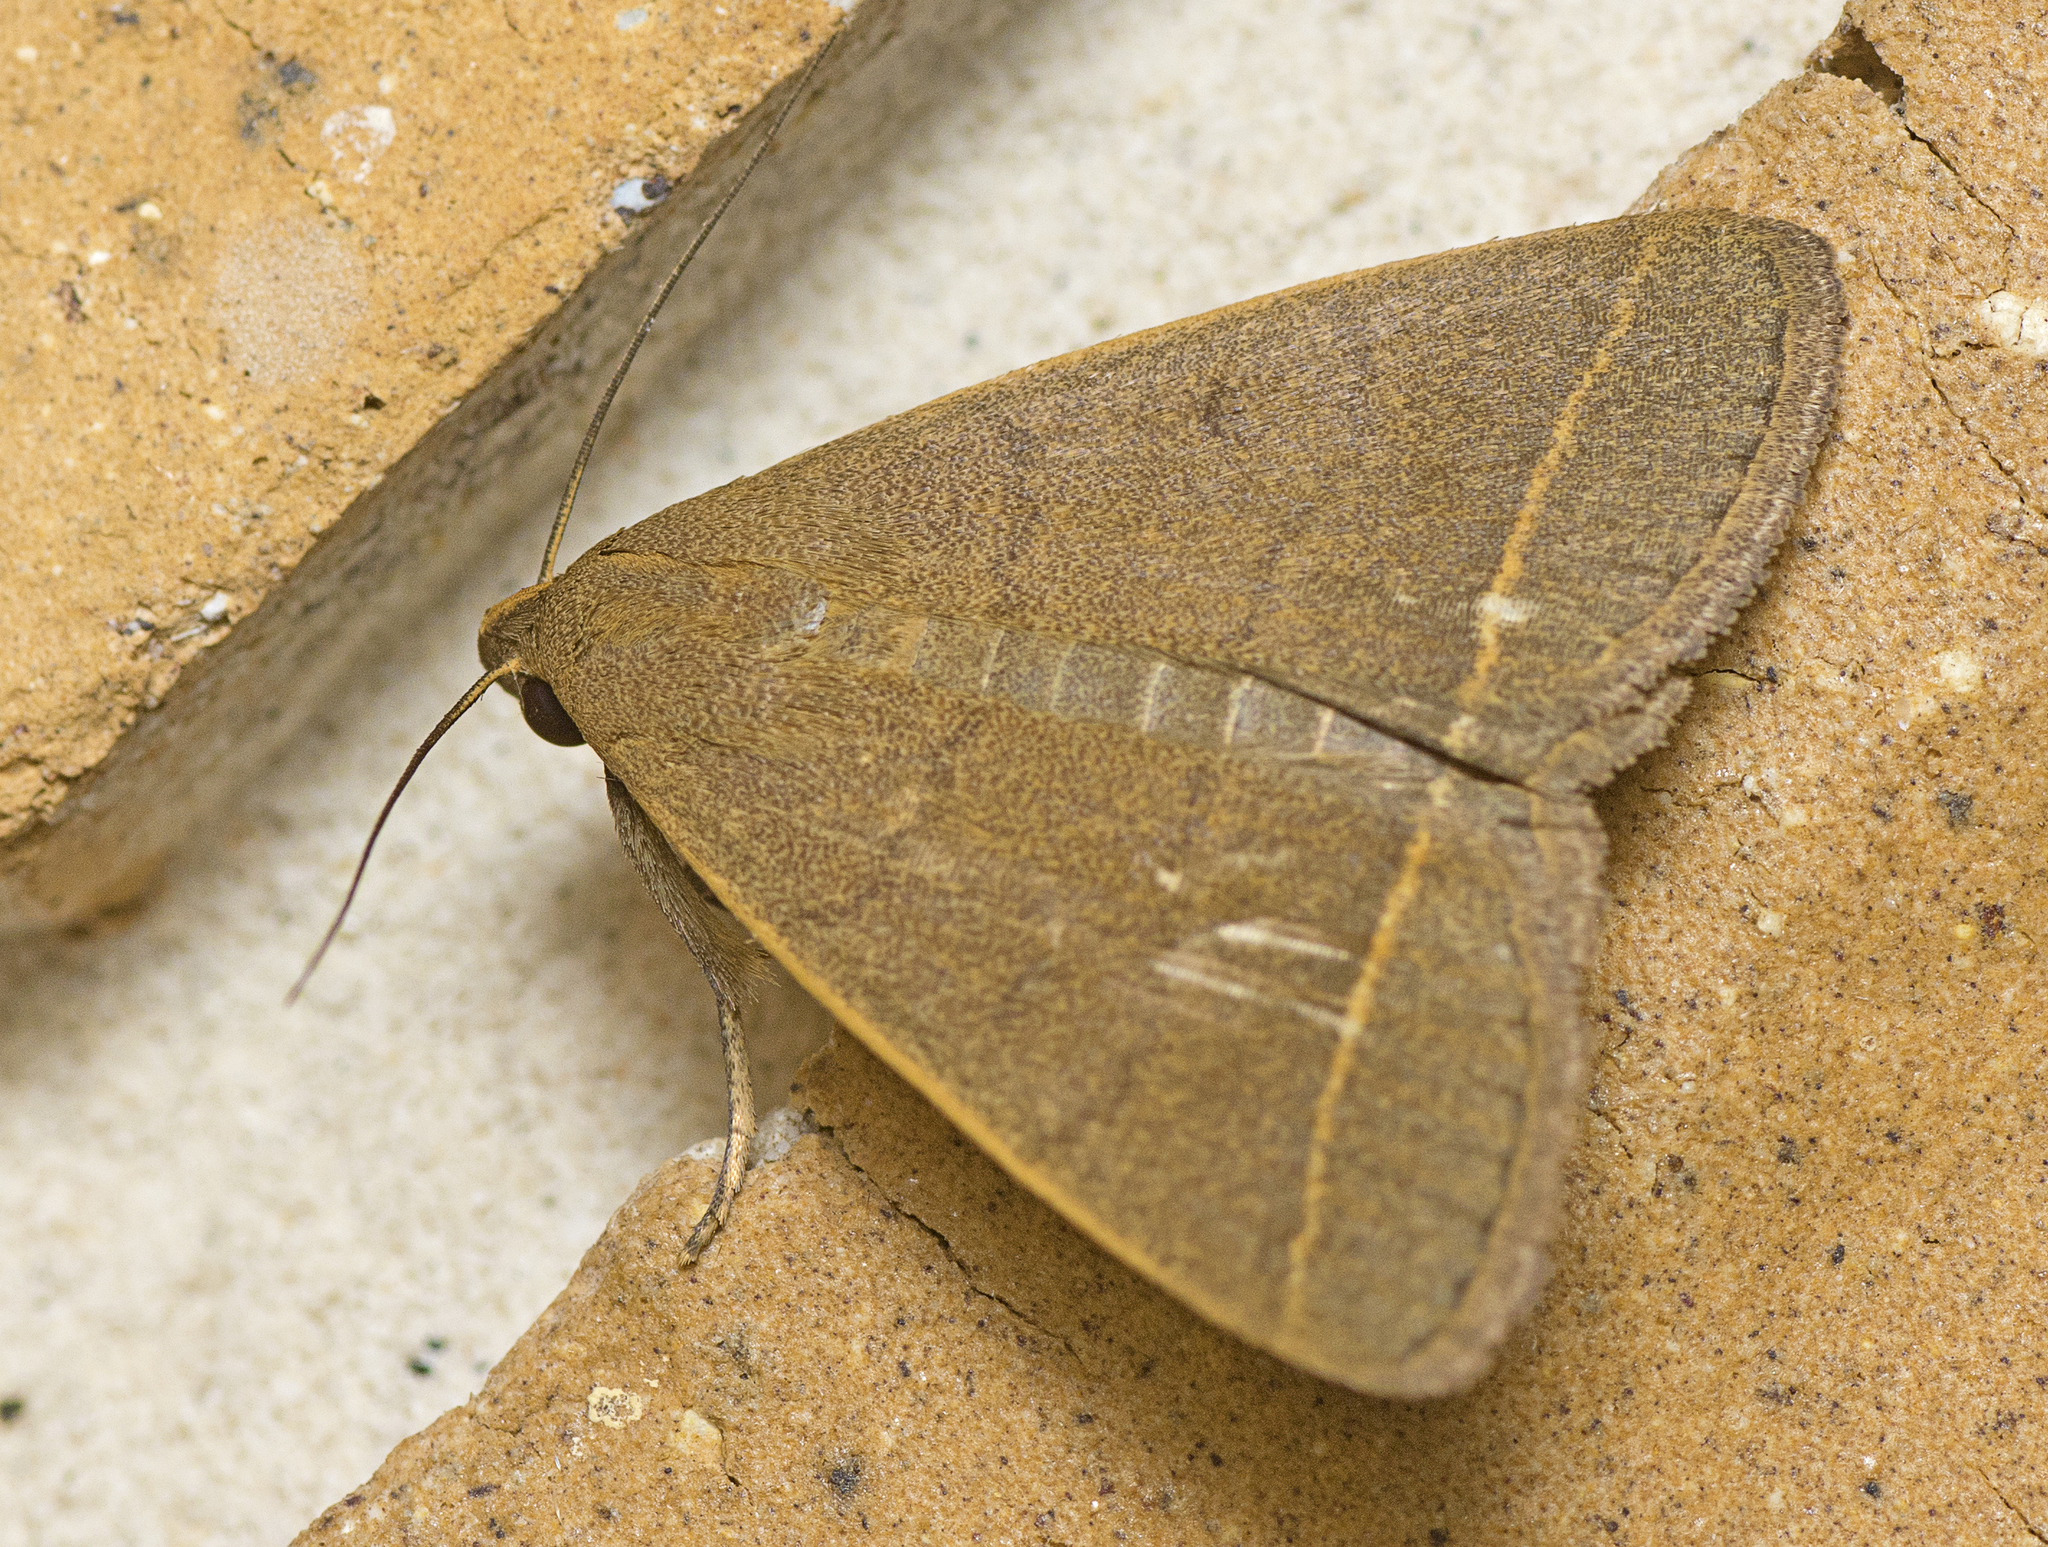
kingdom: Animalia
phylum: Arthropoda
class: Insecta
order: Lepidoptera
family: Erebidae
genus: Simplicia
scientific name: Simplicia cornicalis
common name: Tiki hut litter moth
